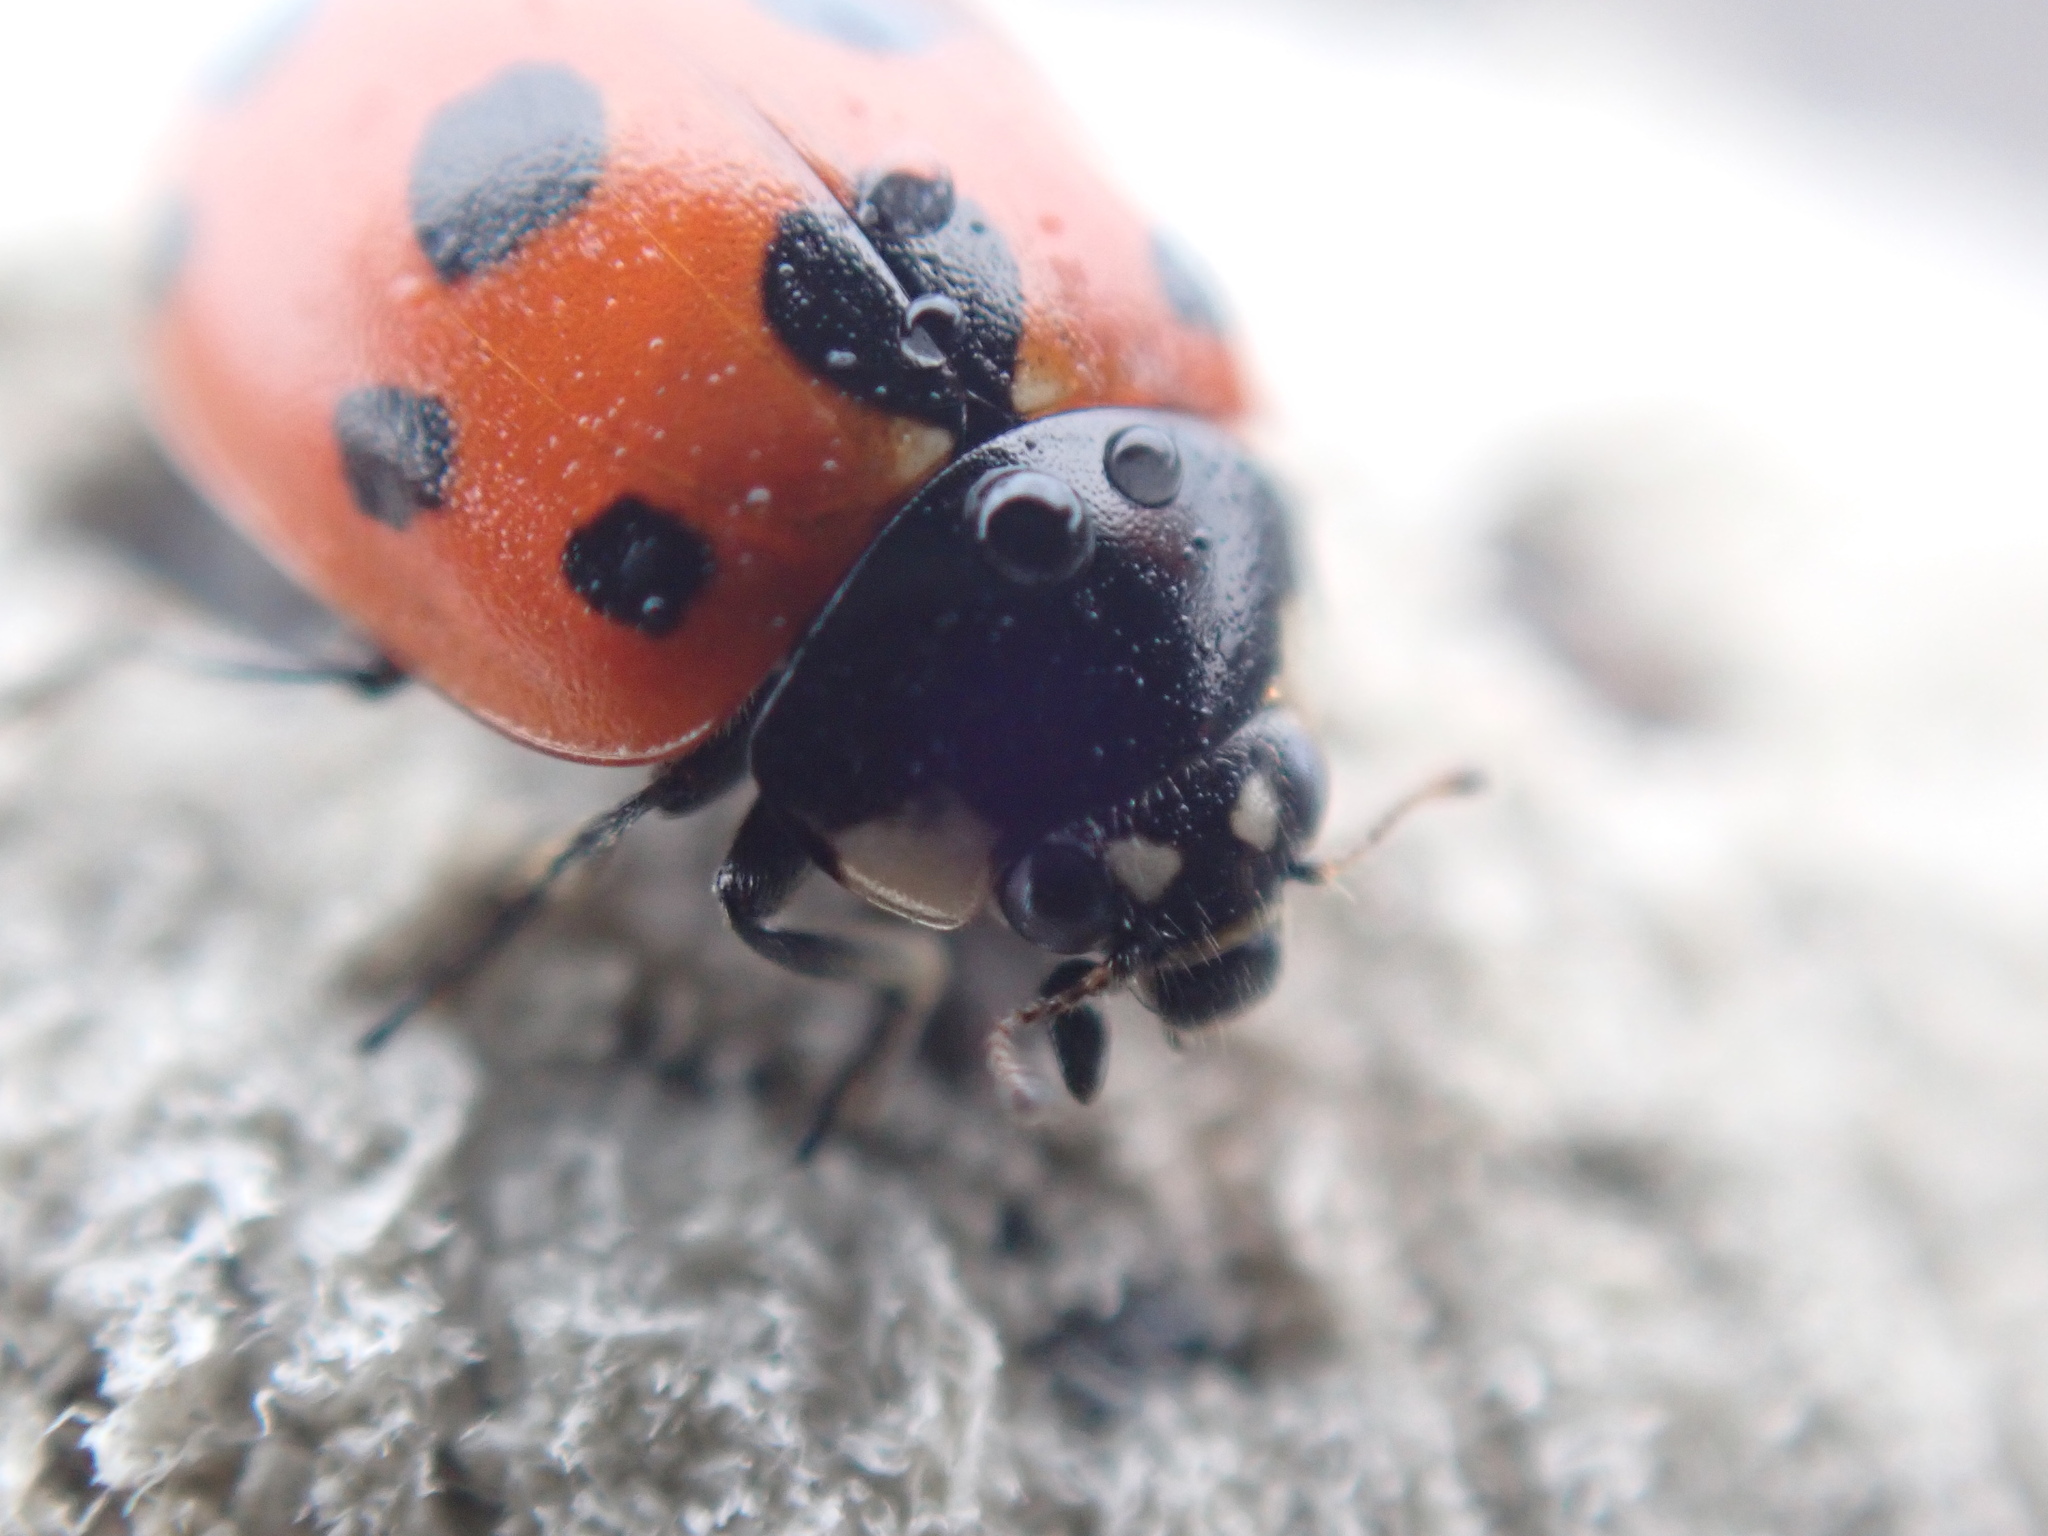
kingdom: Animalia
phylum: Arthropoda
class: Insecta
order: Coleoptera
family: Coccinellidae
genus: Coccinella
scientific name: Coccinella undecimpunctata
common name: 11-spot ladybird
